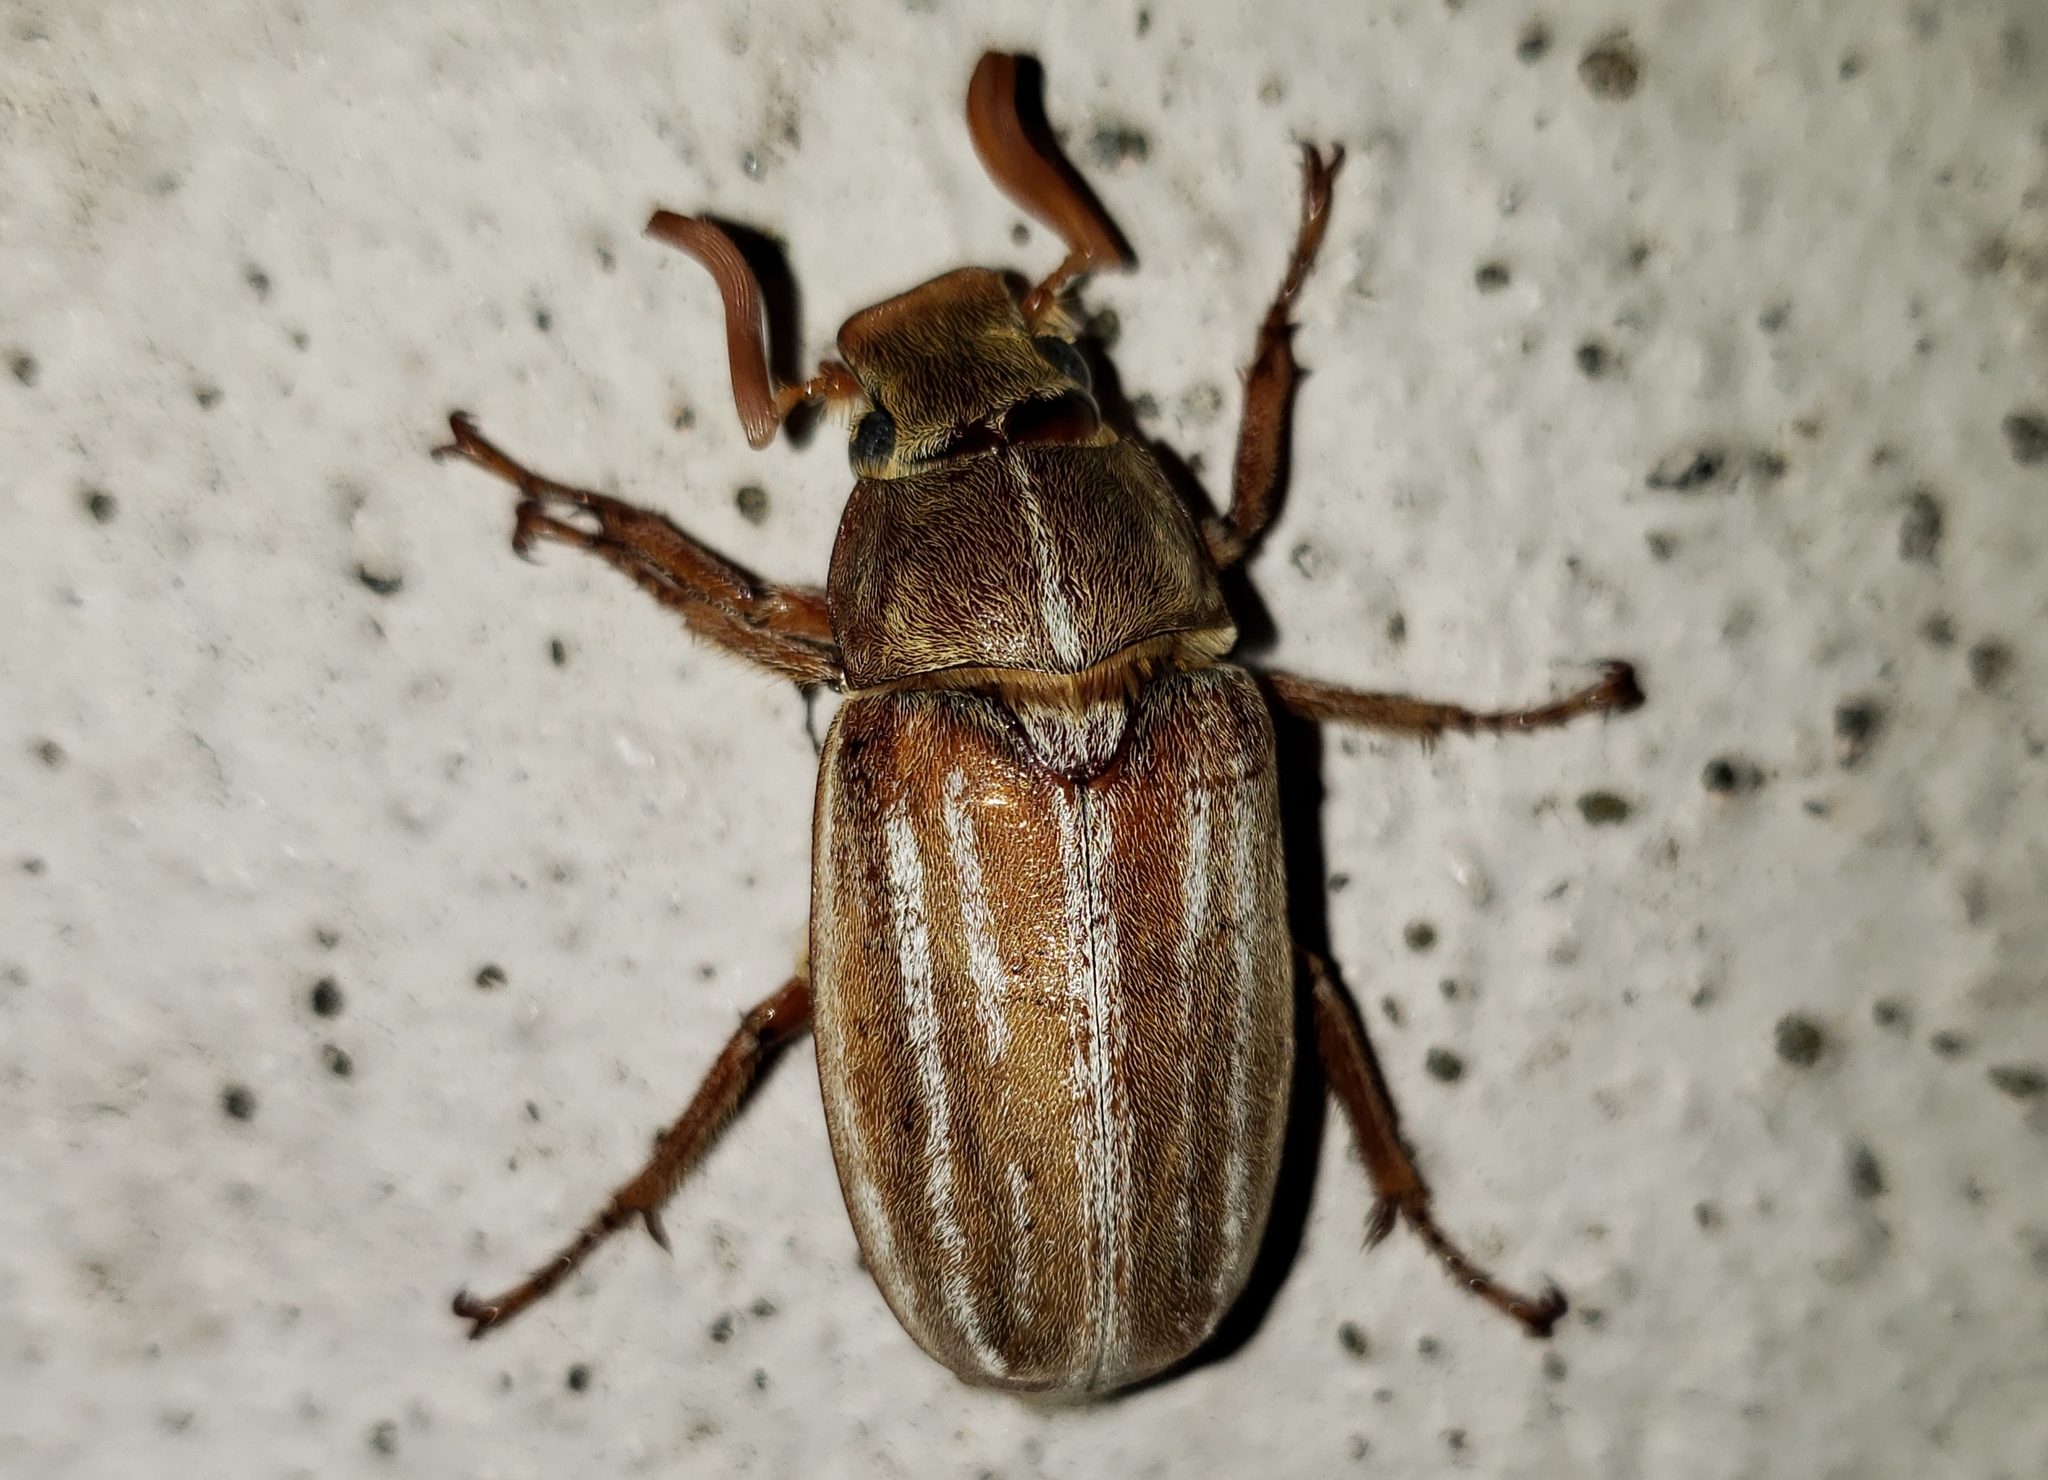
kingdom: Animalia
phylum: Arthropoda
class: Insecta
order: Coleoptera
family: Scarabaeidae
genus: Polyphylla
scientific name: Polyphylla occidentalis
